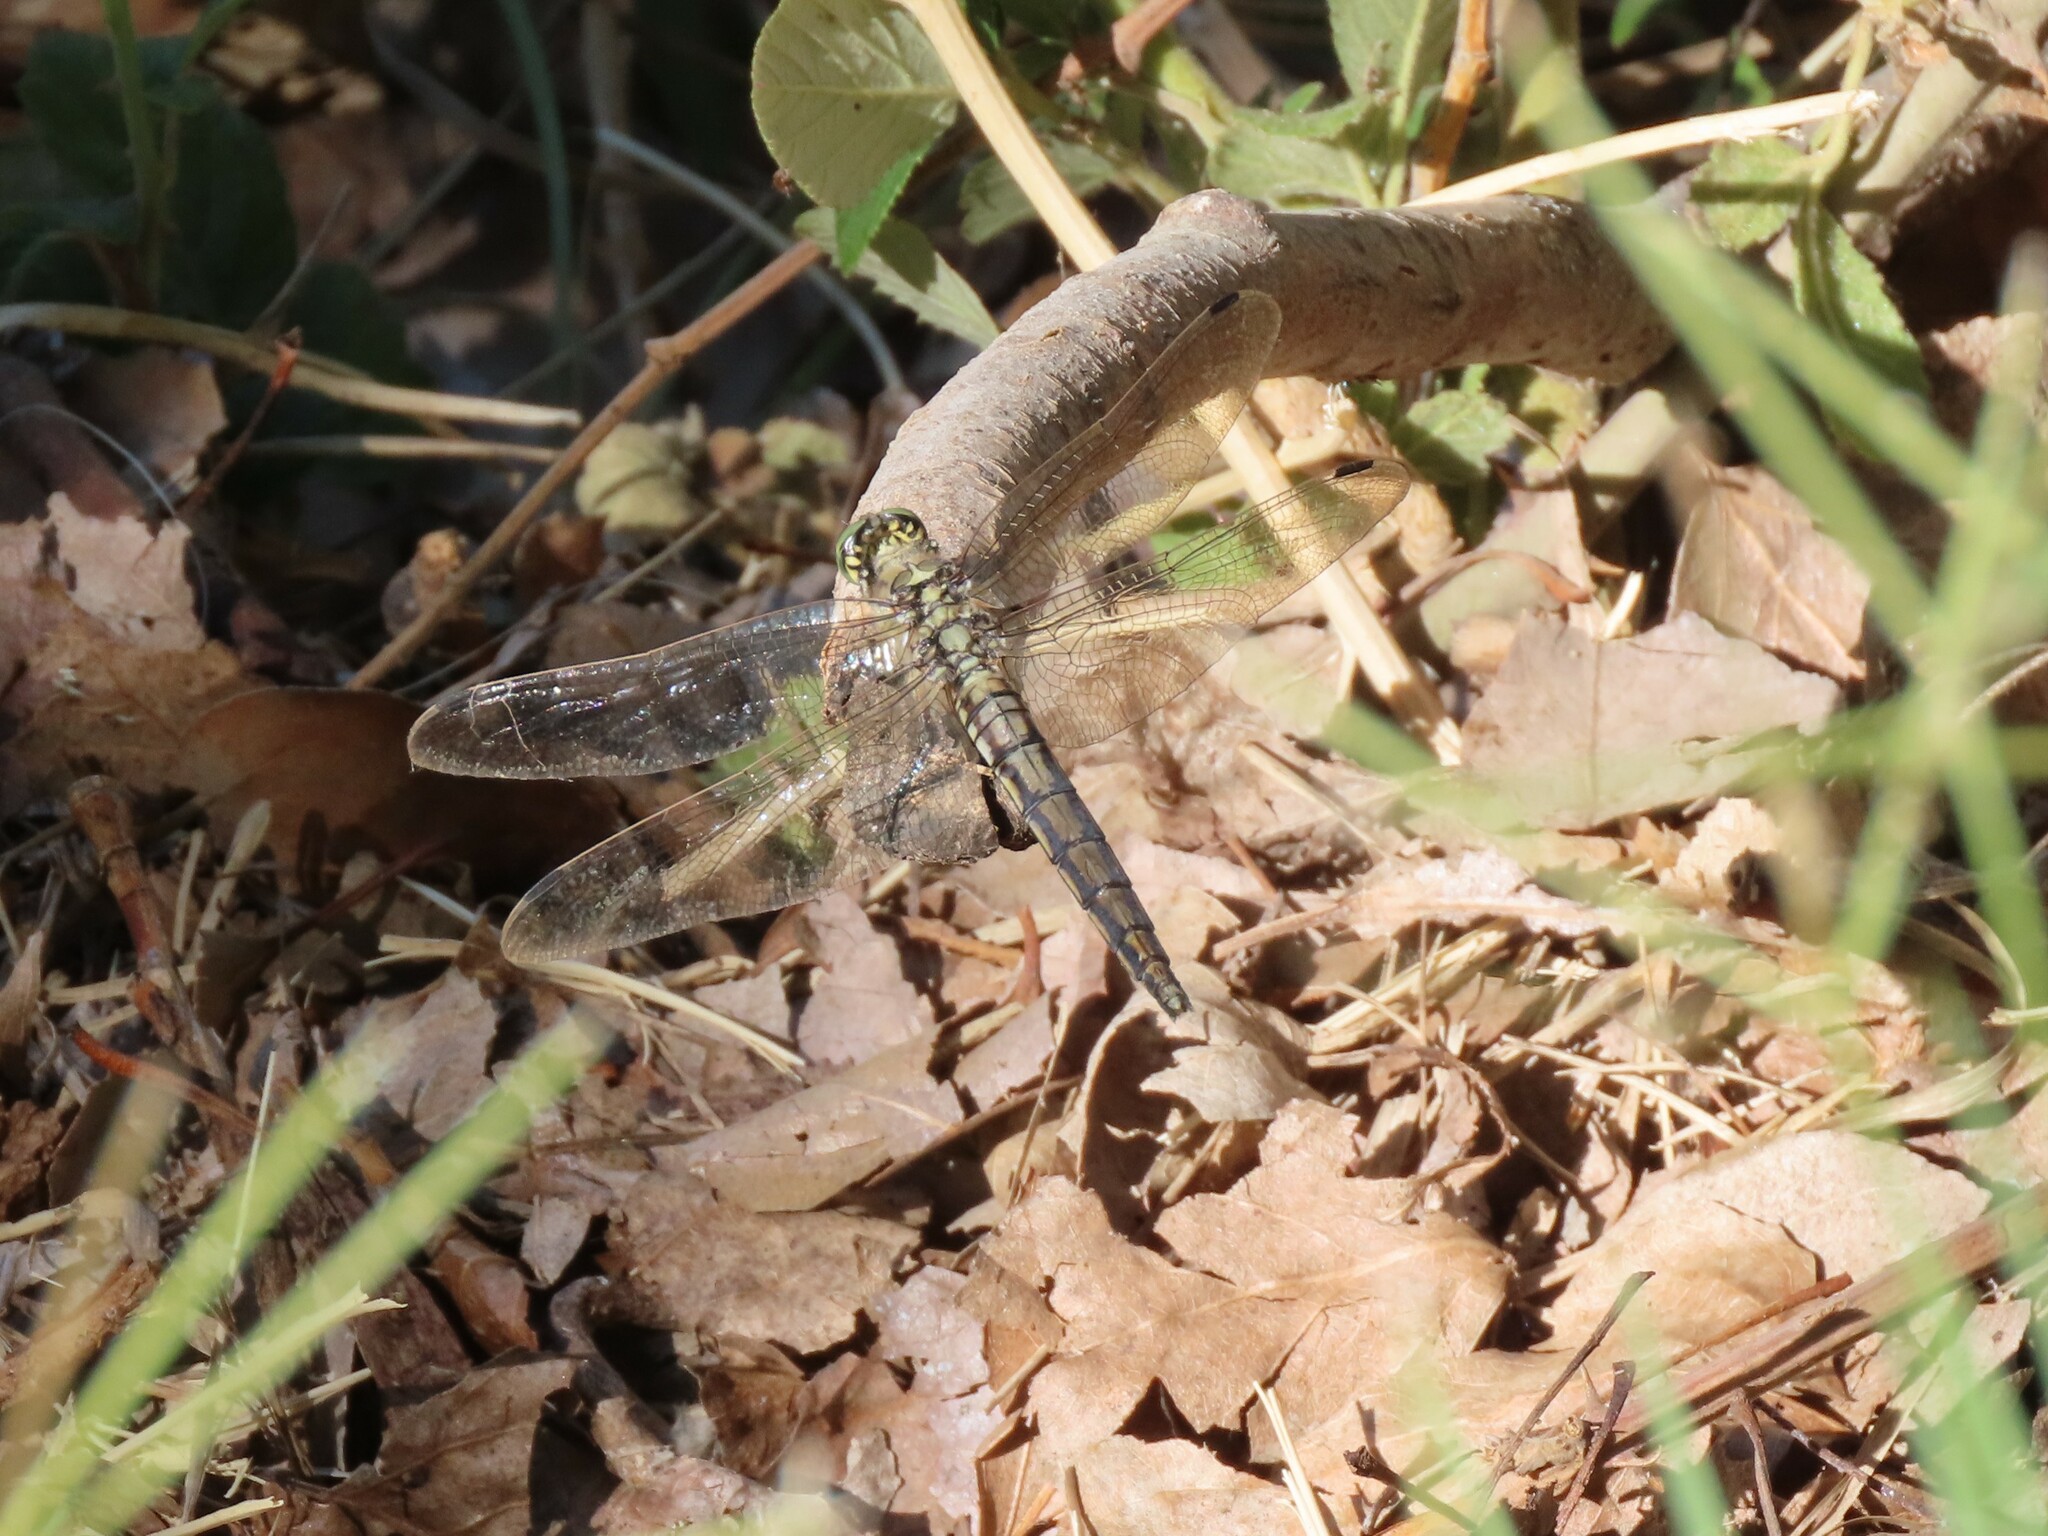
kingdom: Animalia
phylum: Arthropoda
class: Insecta
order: Odonata
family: Libellulidae
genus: Orthetrum
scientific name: Orthetrum cancellatum
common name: Black-tailed skimmer
